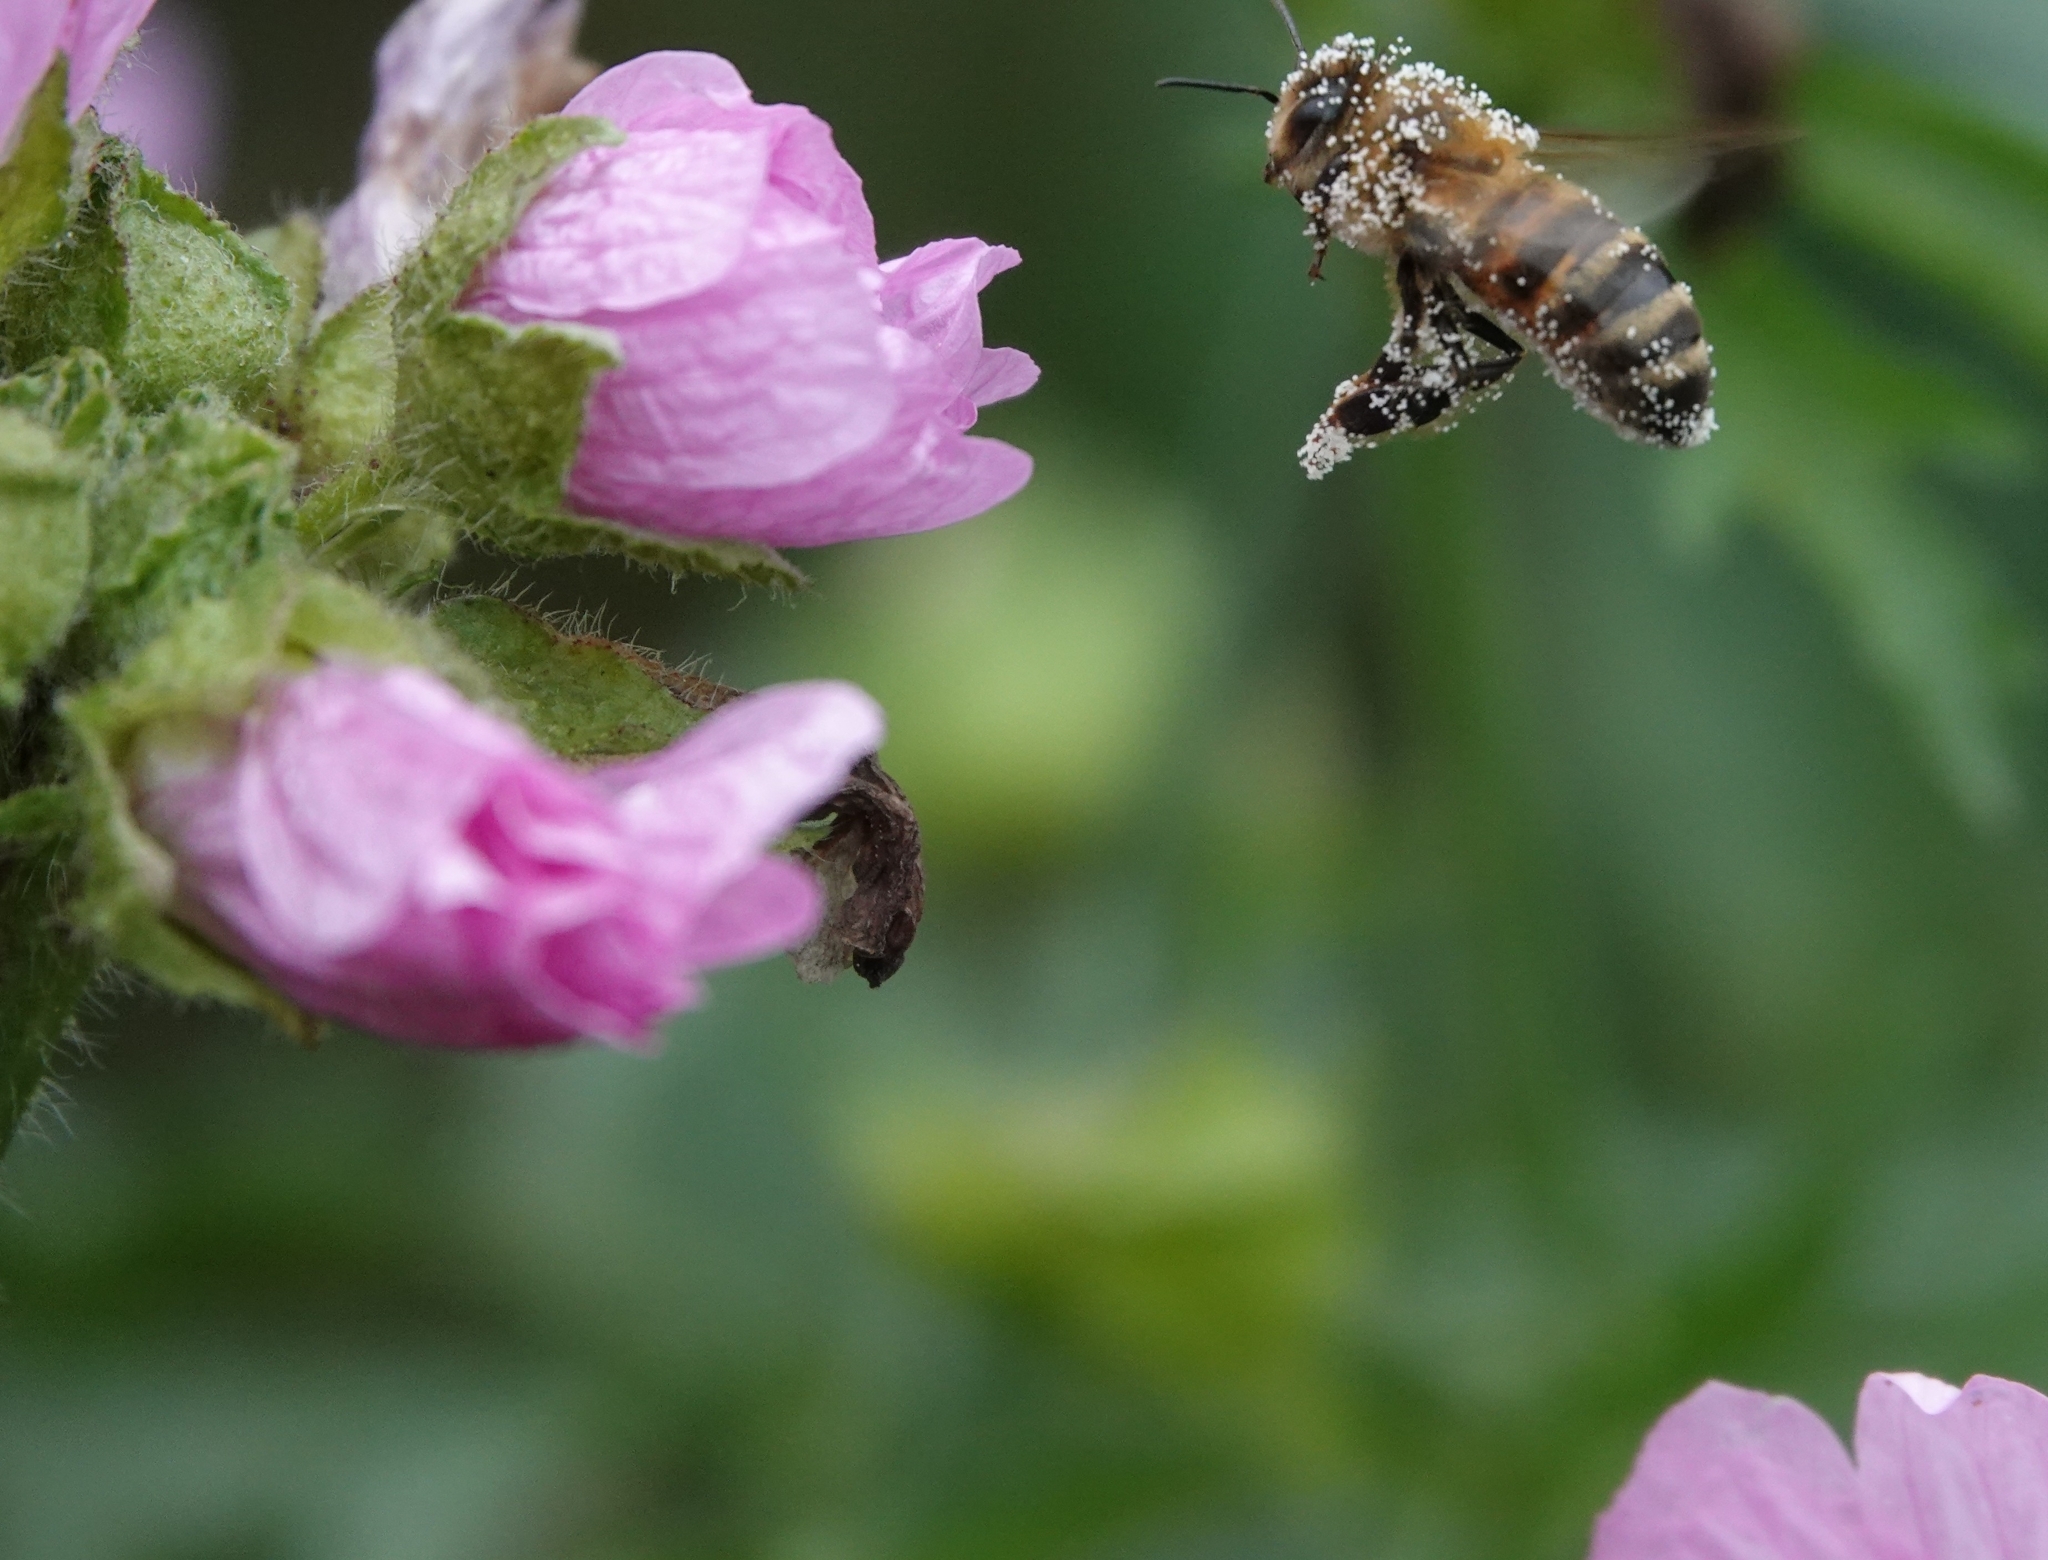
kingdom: Animalia
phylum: Arthropoda
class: Insecta
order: Hymenoptera
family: Apidae
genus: Apis
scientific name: Apis mellifera
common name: Honey bee
